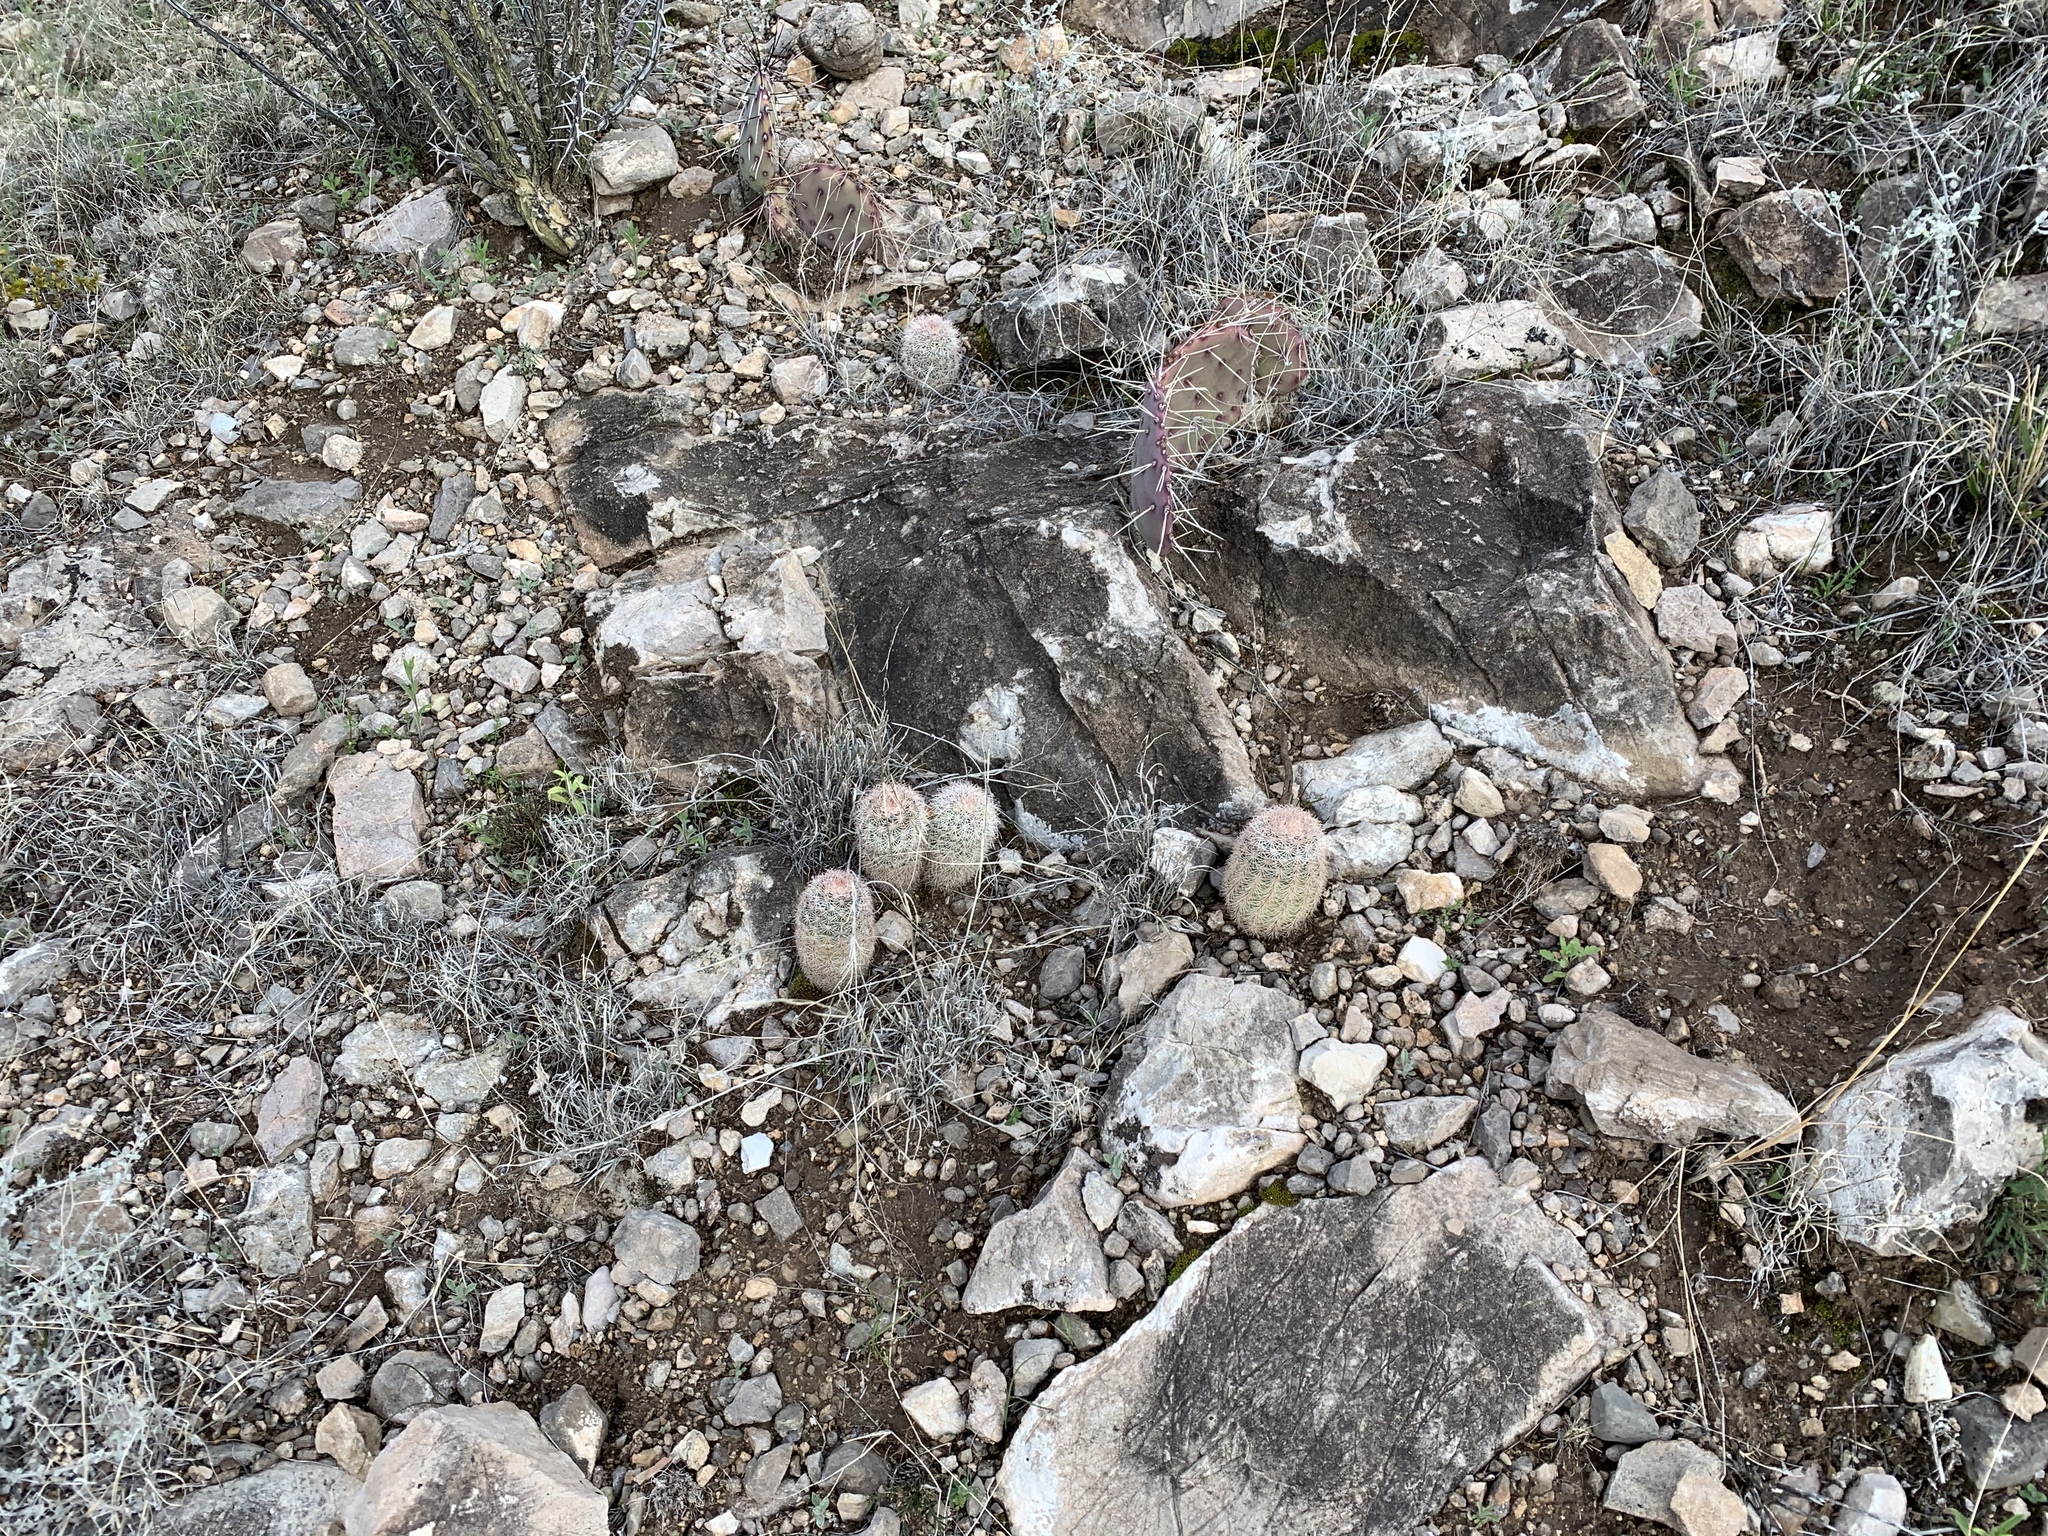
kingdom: Plantae
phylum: Tracheophyta
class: Magnoliopsida
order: Caryophyllales
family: Cactaceae
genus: Echinocereus
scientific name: Echinocereus dasyacanthus
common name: Spiny hedgehog cactus
